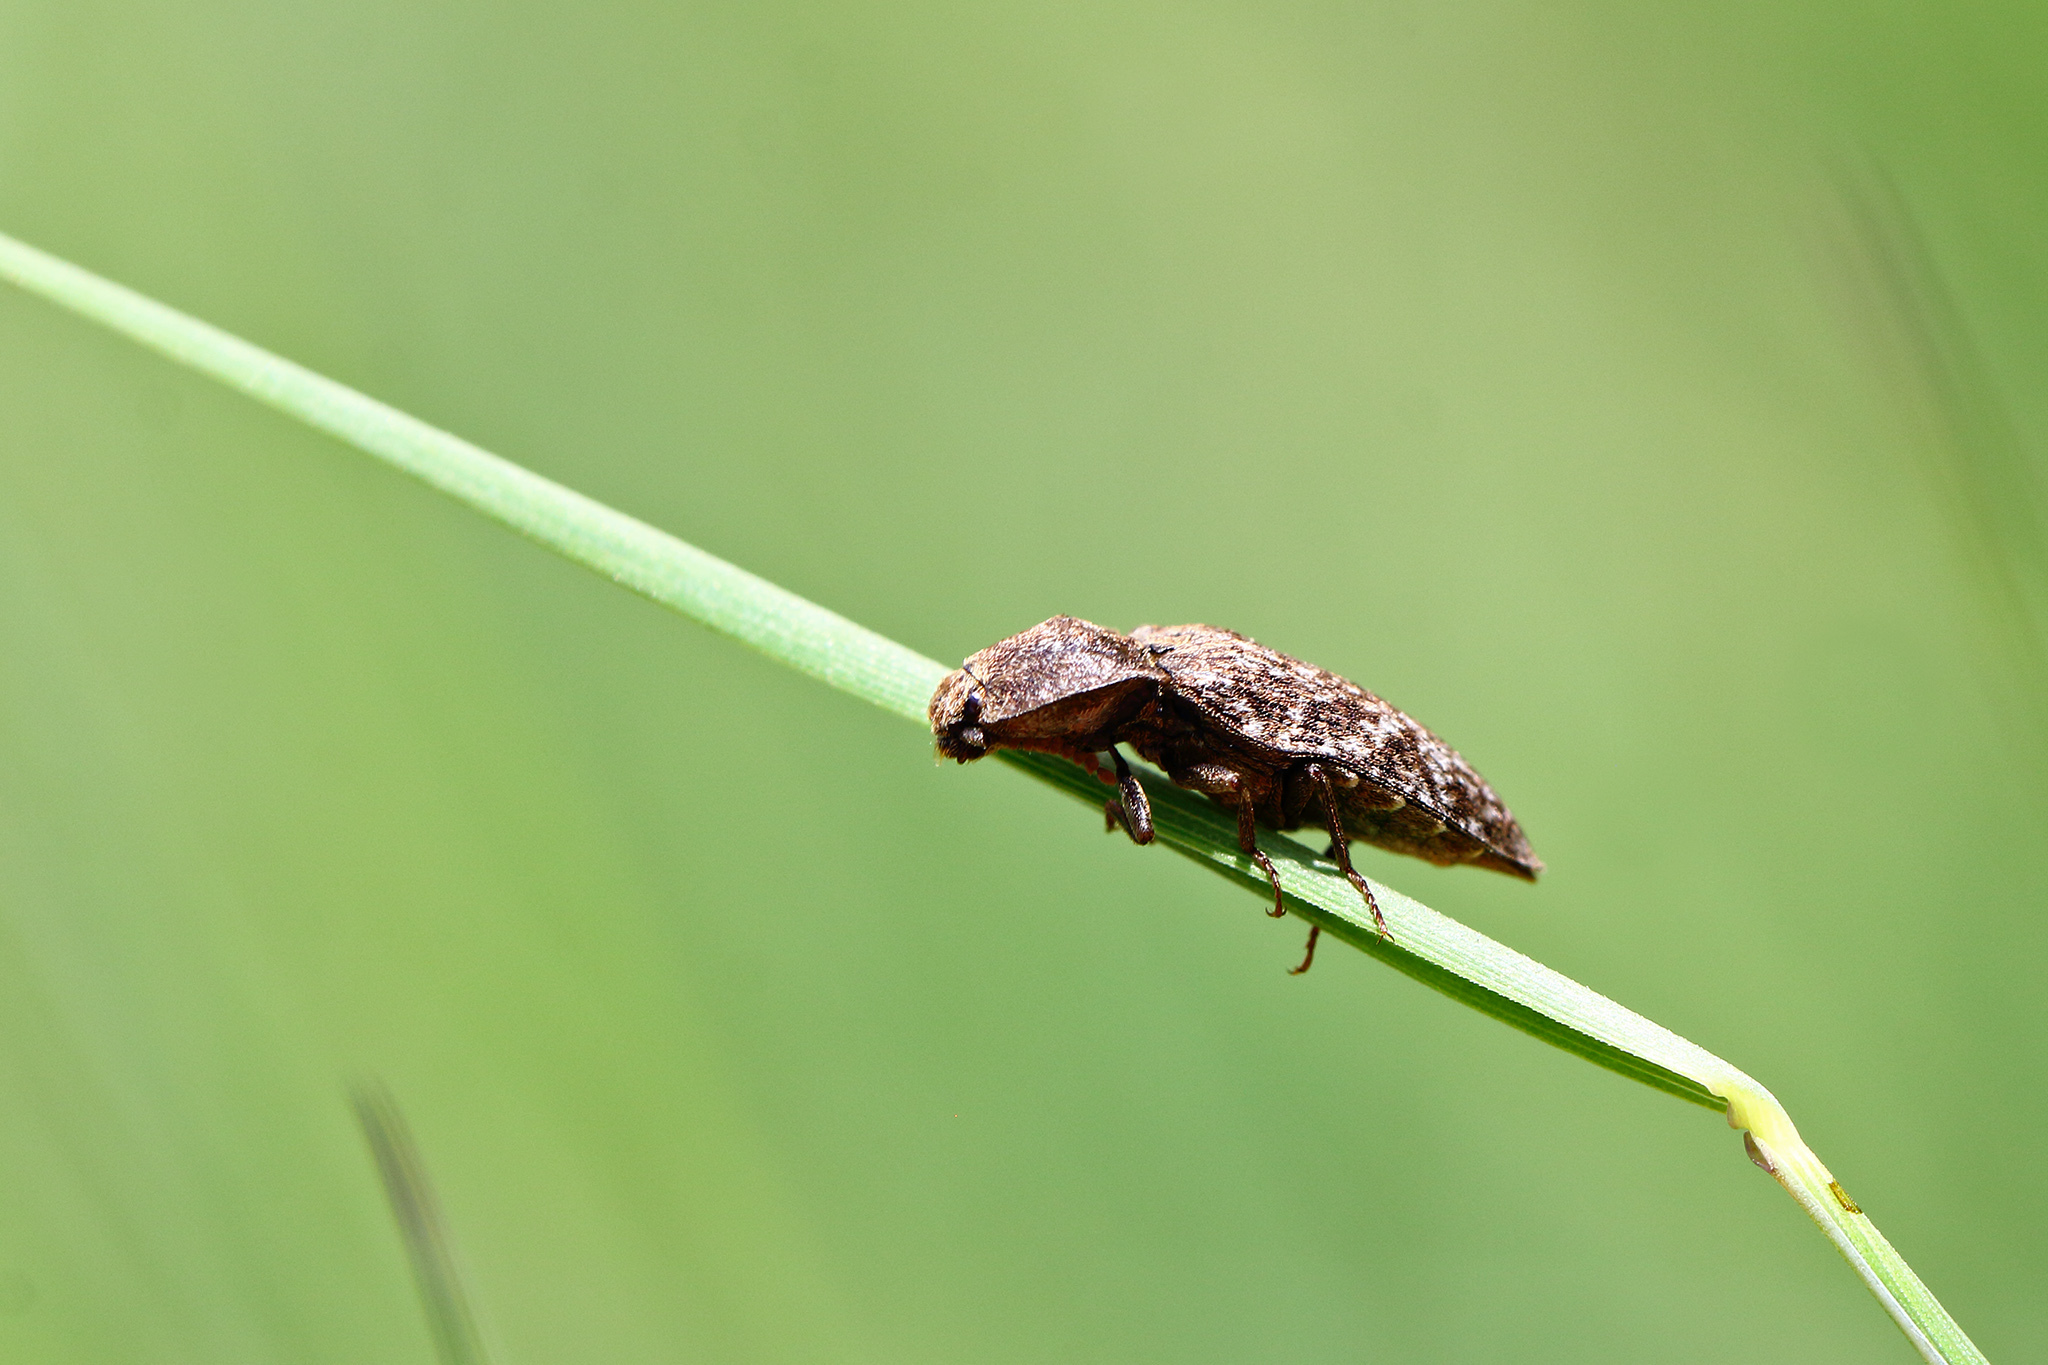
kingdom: Animalia
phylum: Arthropoda
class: Insecta
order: Coleoptera
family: Elateridae
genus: Agrypnus
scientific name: Agrypnus murinus
